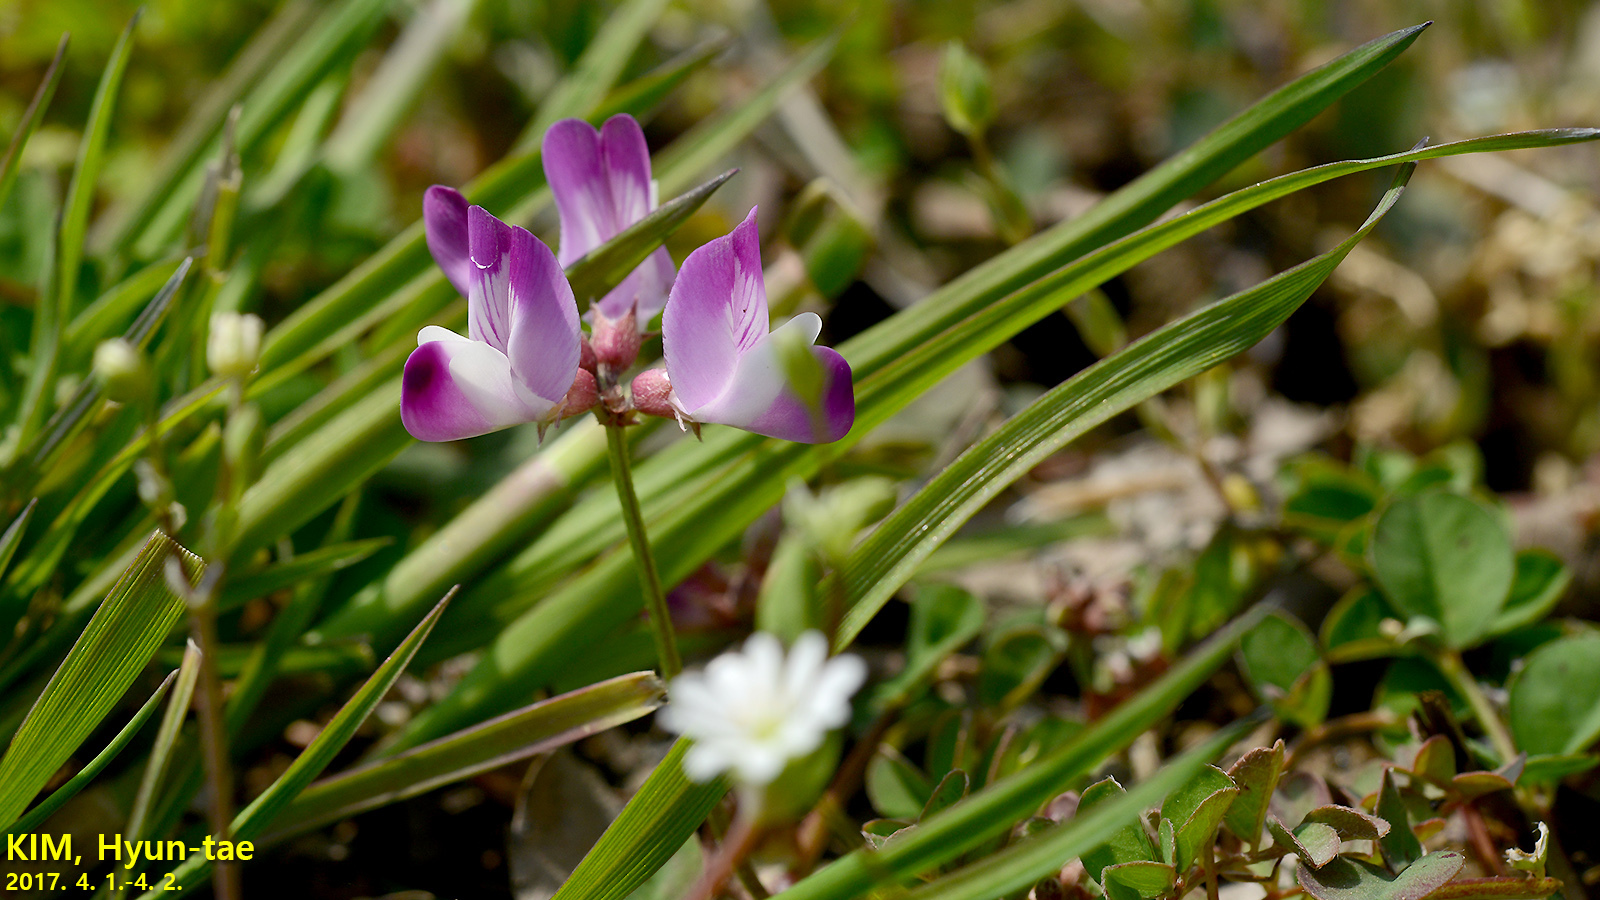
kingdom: Plantae
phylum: Tracheophyta
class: Magnoliopsida
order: Fabales
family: Fabaceae
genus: Astragalus
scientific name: Astragalus sinicus
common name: Chinese milk-vetch
